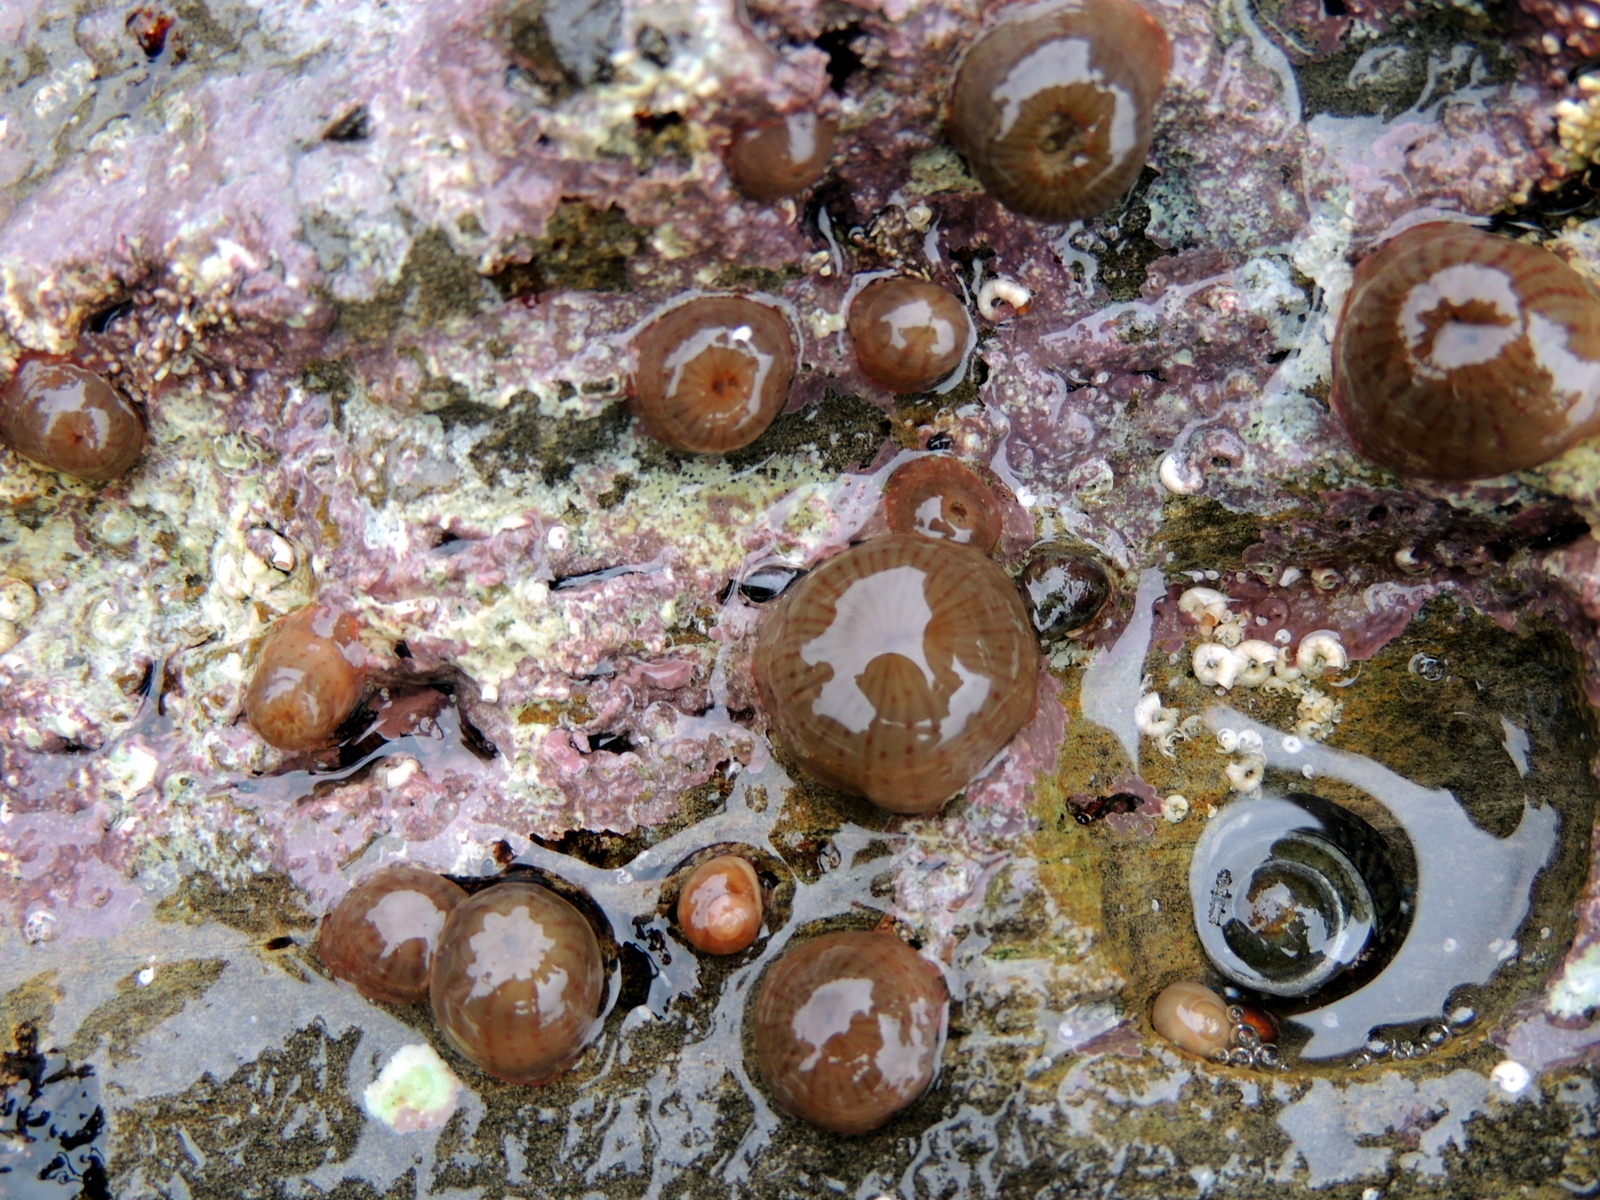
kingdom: Animalia
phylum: Cnidaria
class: Anthozoa
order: Actiniaria
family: Actiniidae
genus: Anthopleura
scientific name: Anthopleura mariae
